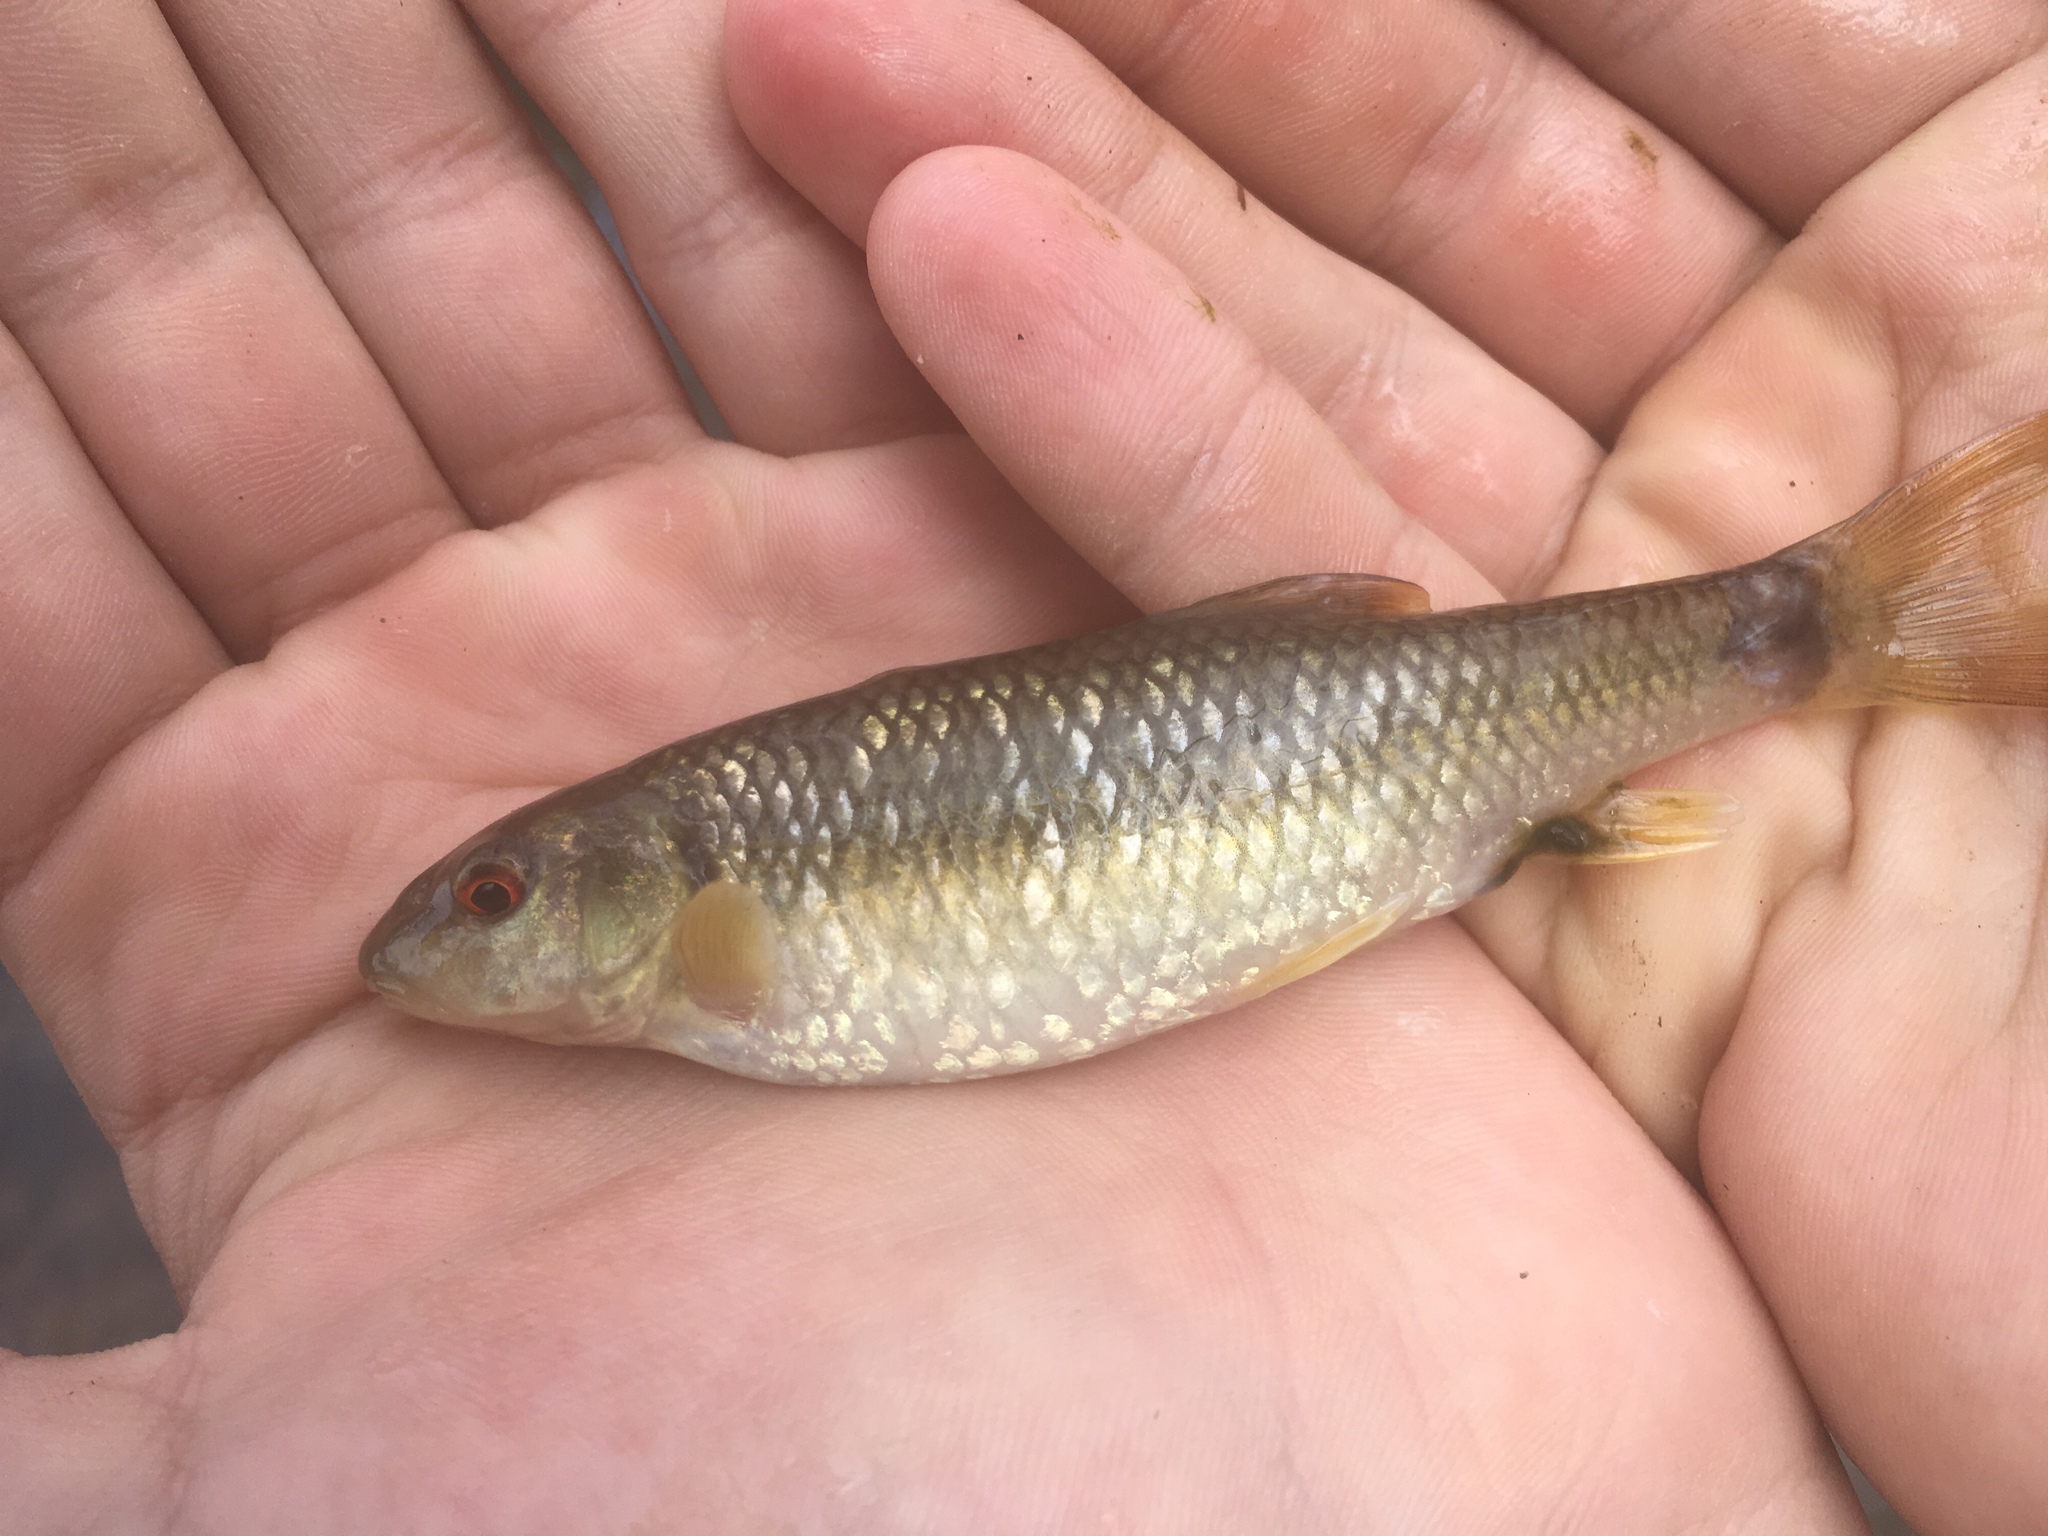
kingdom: Animalia
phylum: Chordata
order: Cypriniformes
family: Cyprinidae
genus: Nocomis
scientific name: Nocomis leptocephalus
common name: Bluehead chub
